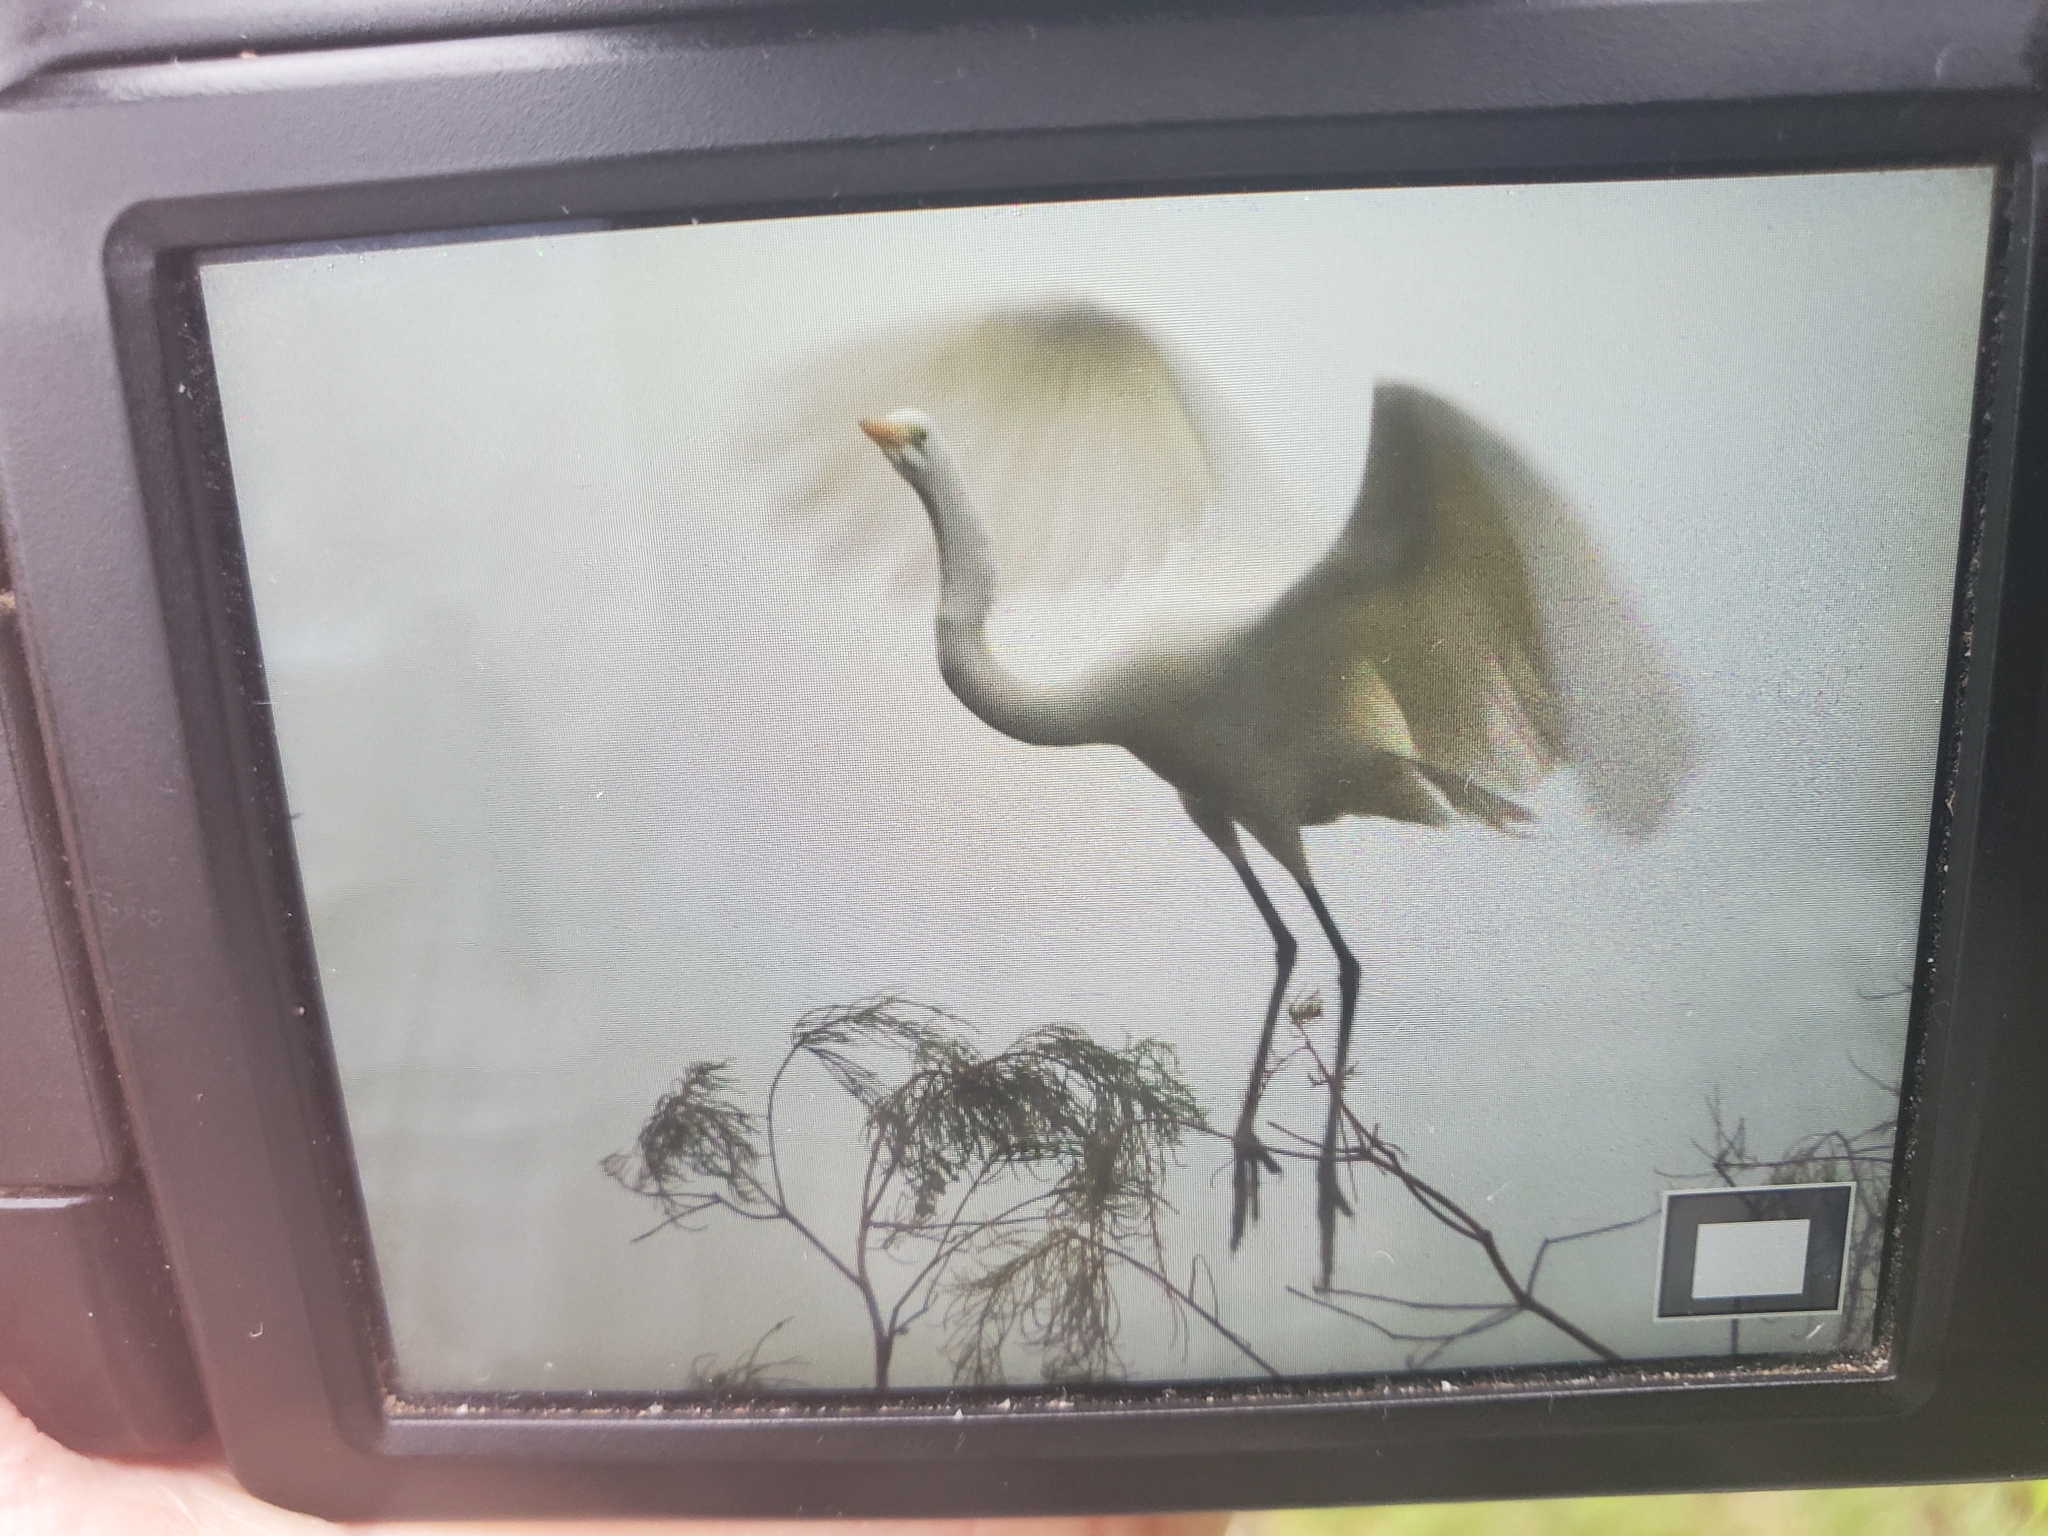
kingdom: Animalia
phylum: Chordata
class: Aves
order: Pelecaniformes
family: Ardeidae
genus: Ardea
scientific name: Ardea alba
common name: Great egret
